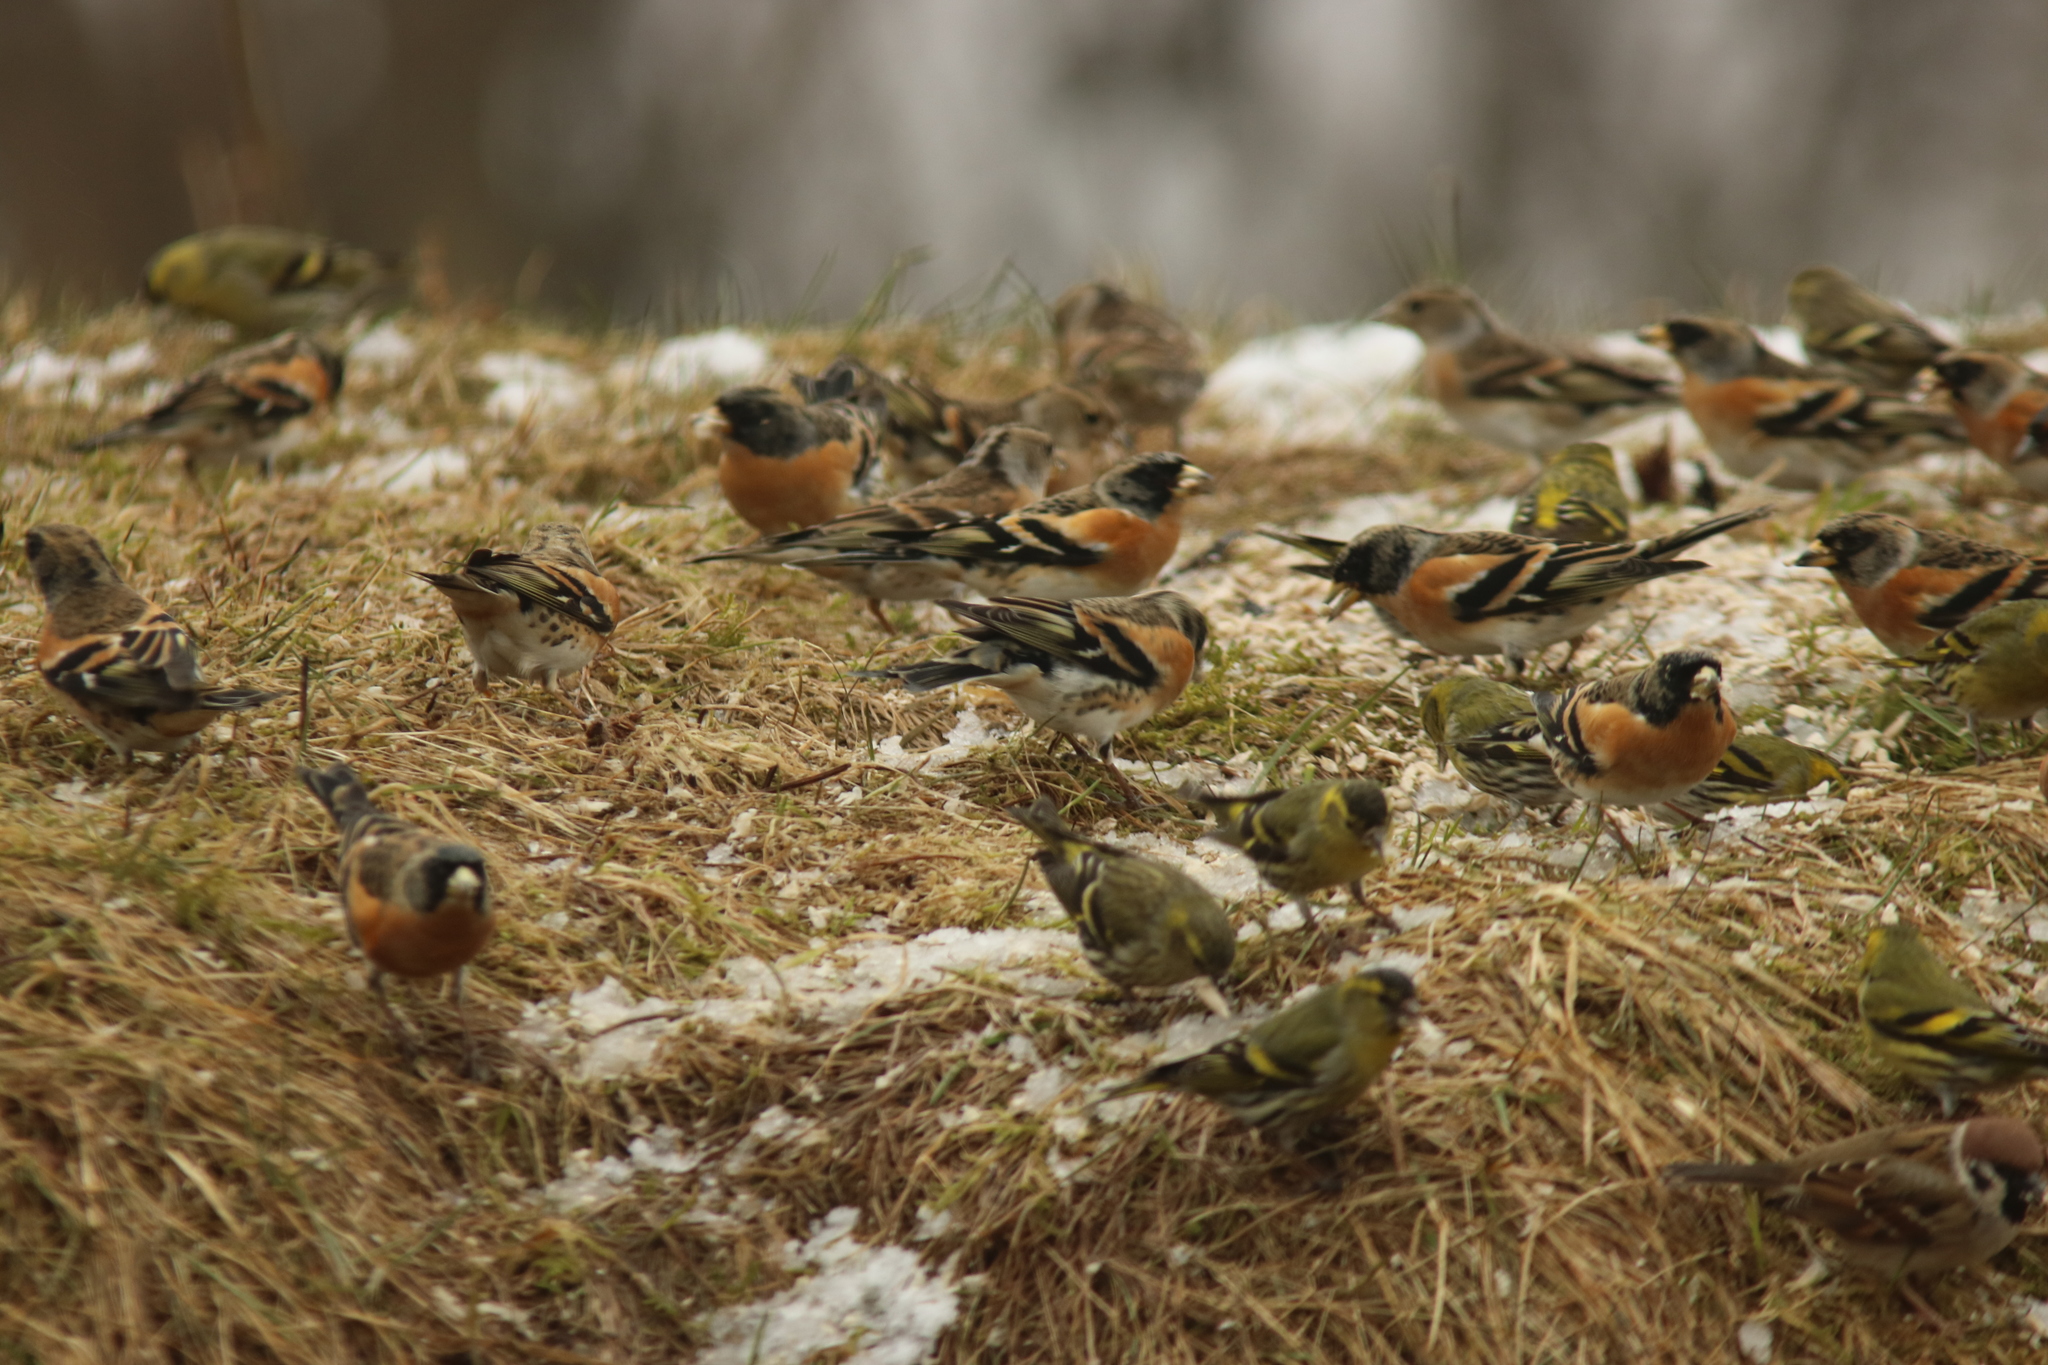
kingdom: Animalia
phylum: Chordata
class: Aves
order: Passeriformes
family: Fringillidae
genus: Fringilla
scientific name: Fringilla montifringilla
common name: Brambling
